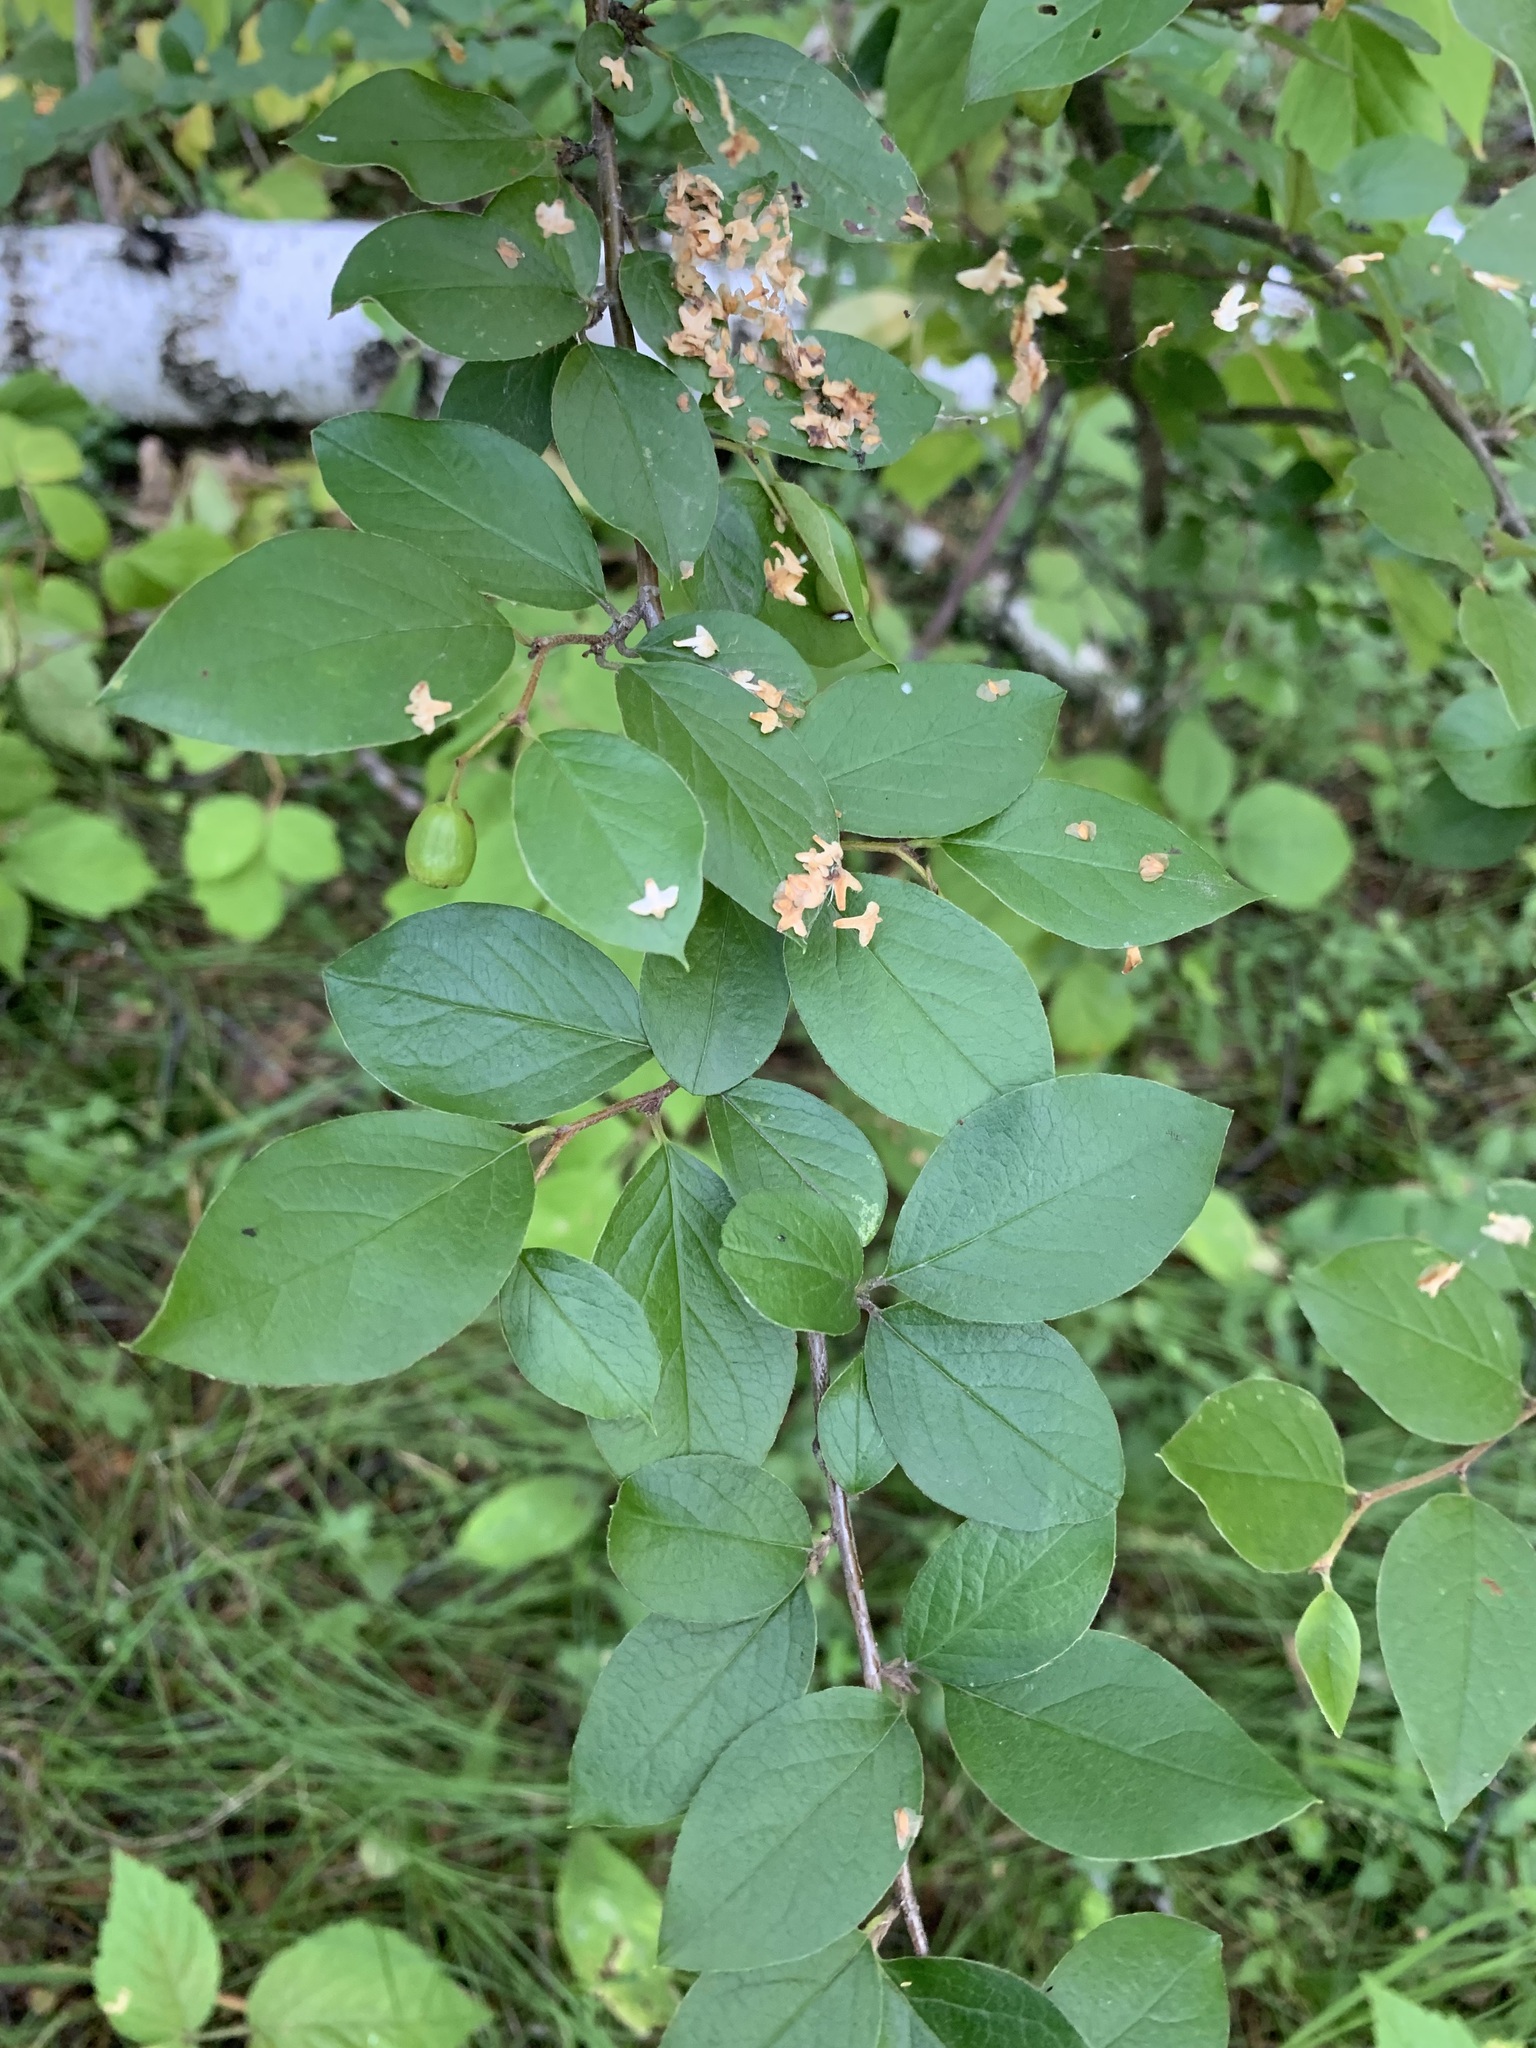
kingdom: Plantae
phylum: Tracheophyta
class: Magnoliopsida
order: Rosales
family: Rosaceae
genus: Cotoneaster
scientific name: Cotoneaster acutifolius
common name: Peking cotoneaster
